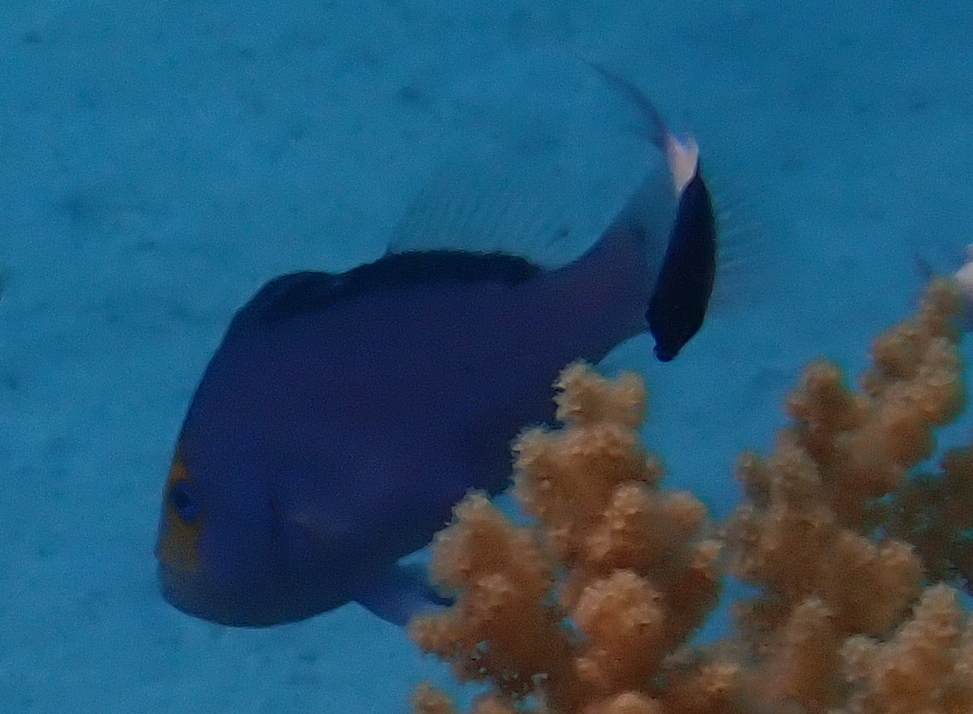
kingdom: Animalia
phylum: Chordata
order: Perciformes
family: Serranidae
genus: Diploprion
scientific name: Diploprion drachi
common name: Yellowface soapfish
